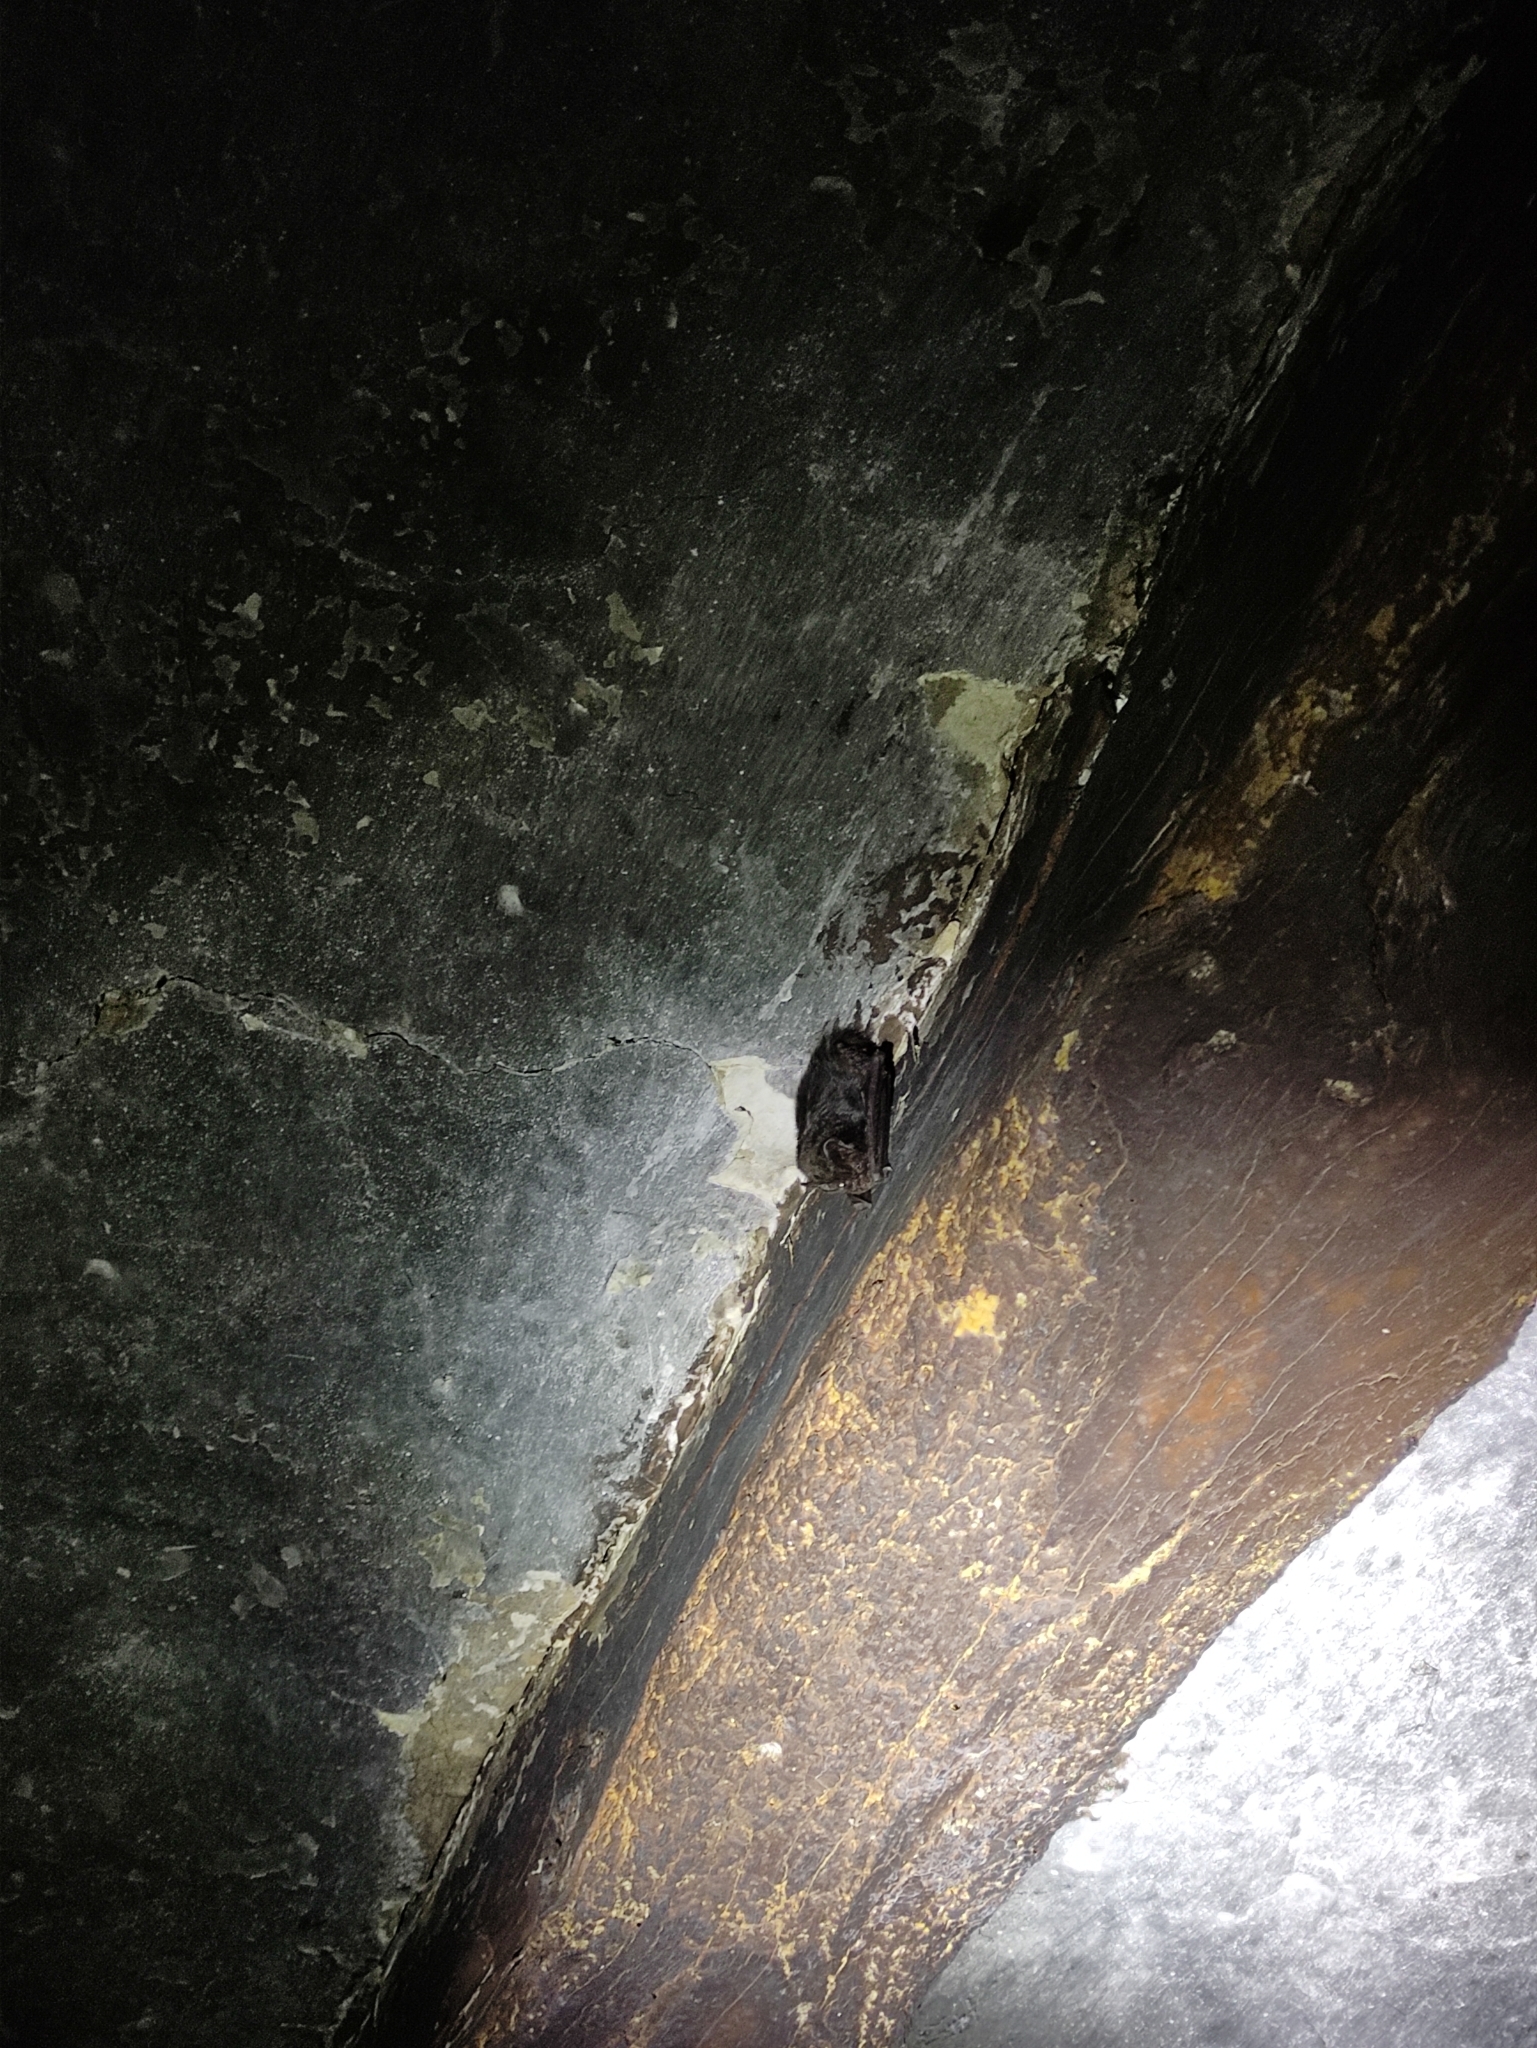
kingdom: Animalia
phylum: Chordata
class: Mammalia
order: Chiroptera
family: Vespertilionidae
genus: Barbastella
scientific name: Barbastella barbastellus
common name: Western barbastelle
